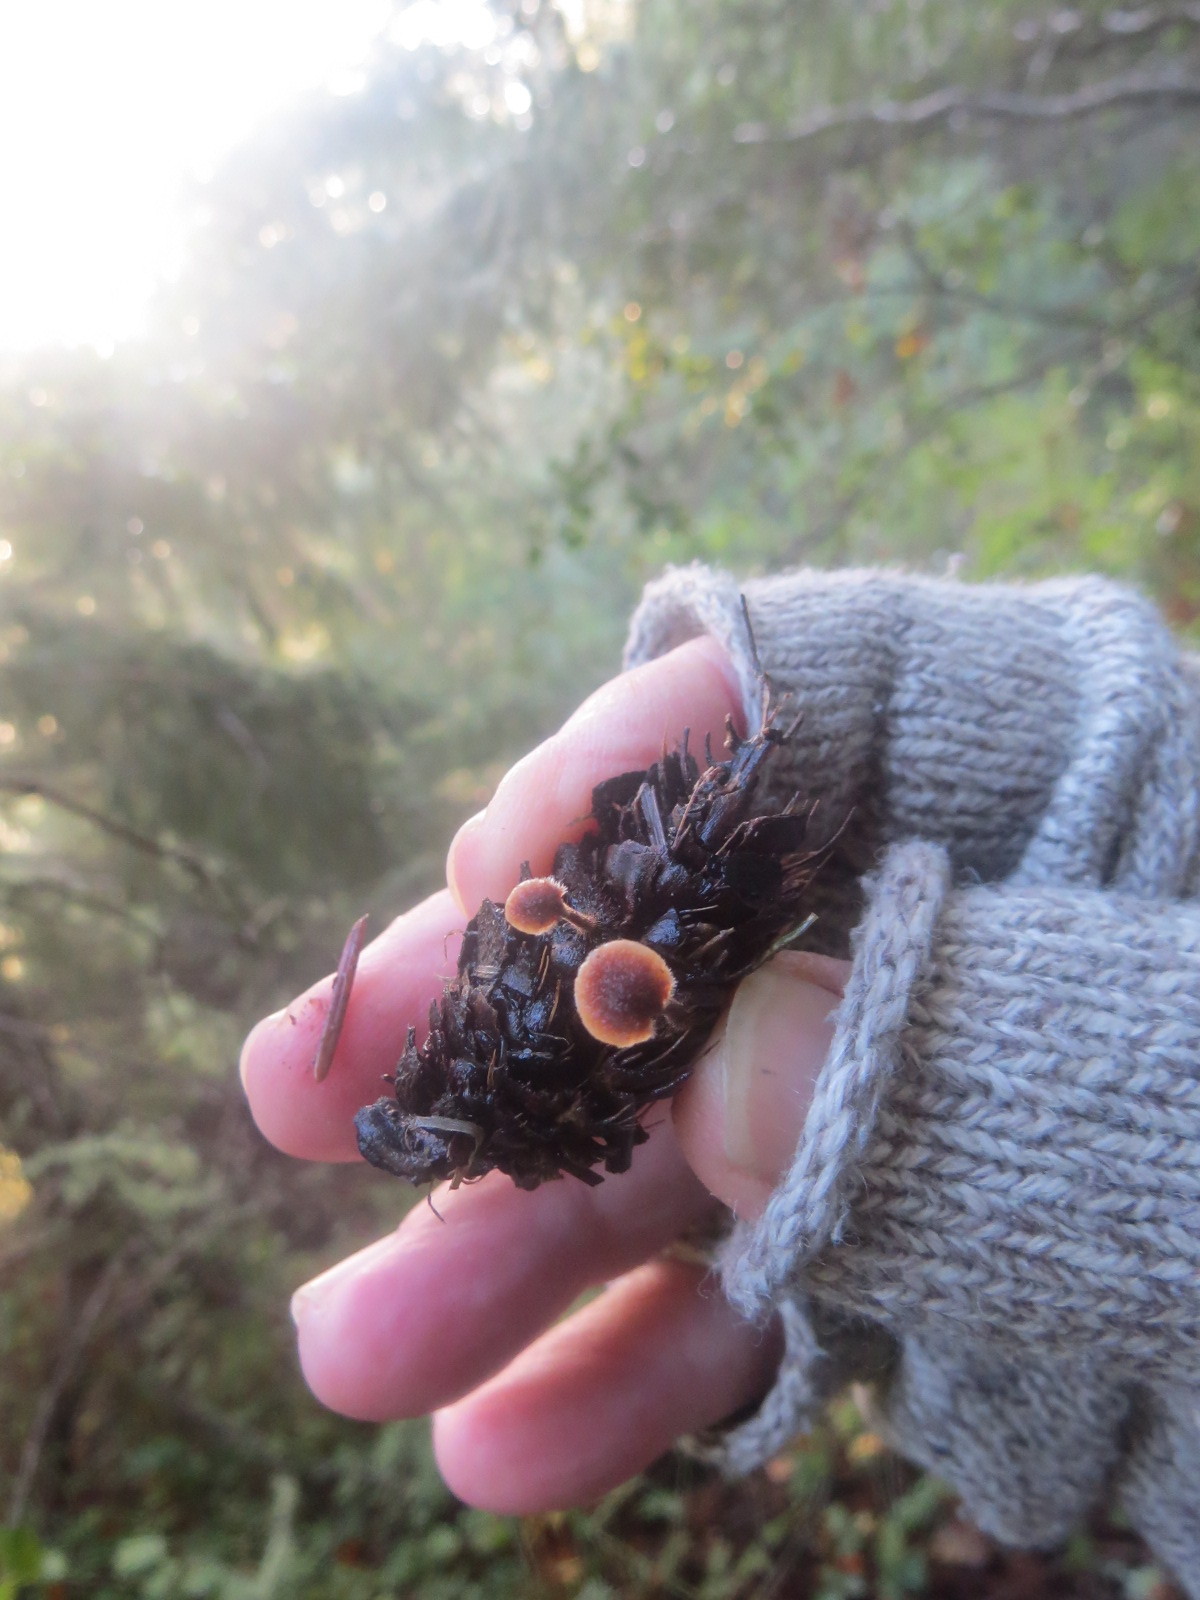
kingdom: Fungi
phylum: Basidiomycota
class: Agaricomycetes
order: Russulales
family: Auriscalpiaceae
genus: Auriscalpium
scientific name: Auriscalpium vulgare
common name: Earpick fungus
